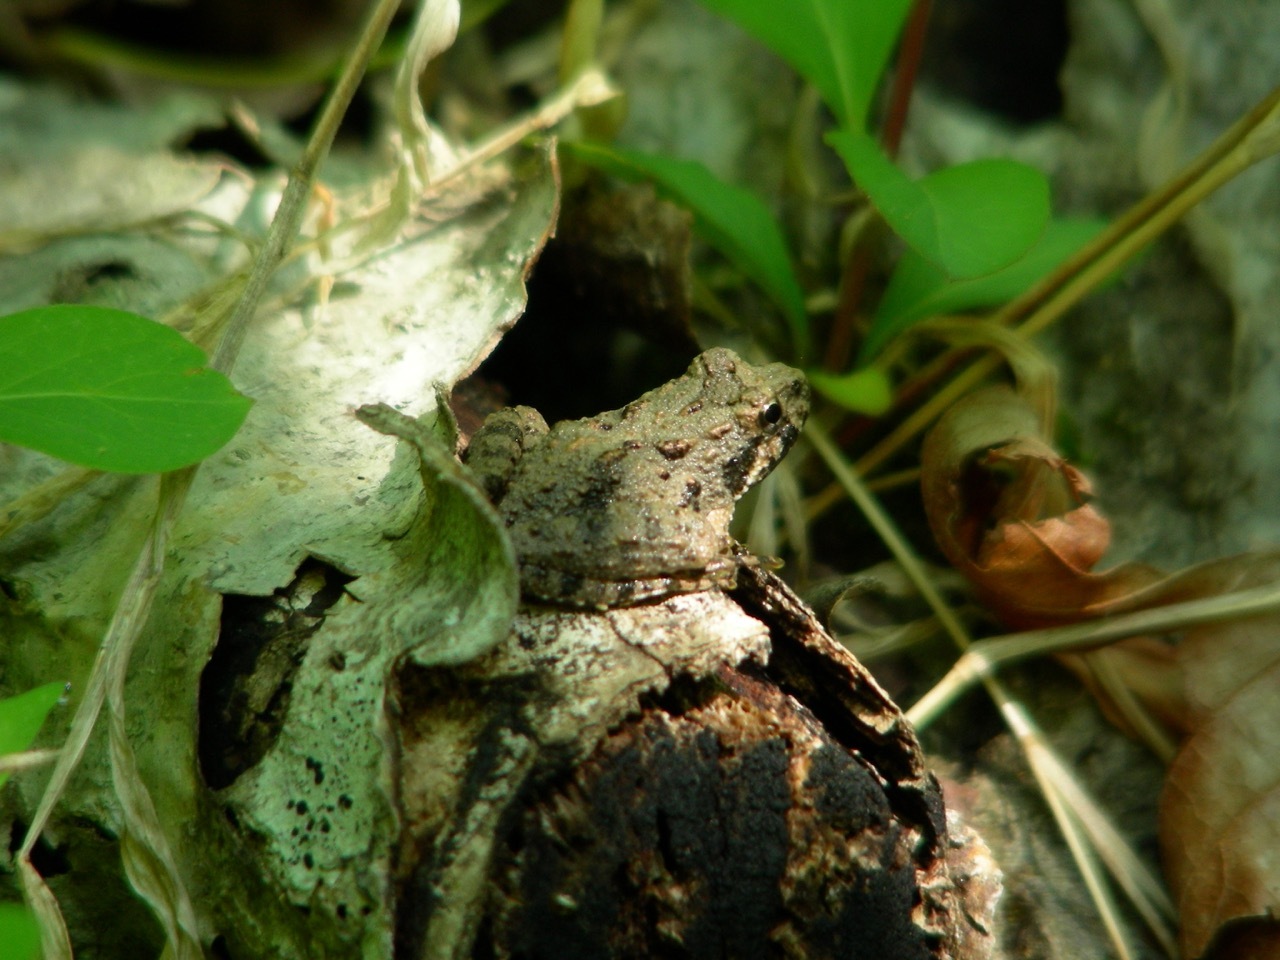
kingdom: Animalia
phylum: Chordata
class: Amphibia
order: Anura
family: Hylidae
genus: Acris
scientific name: Acris crepitans
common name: Northern cricket frog
